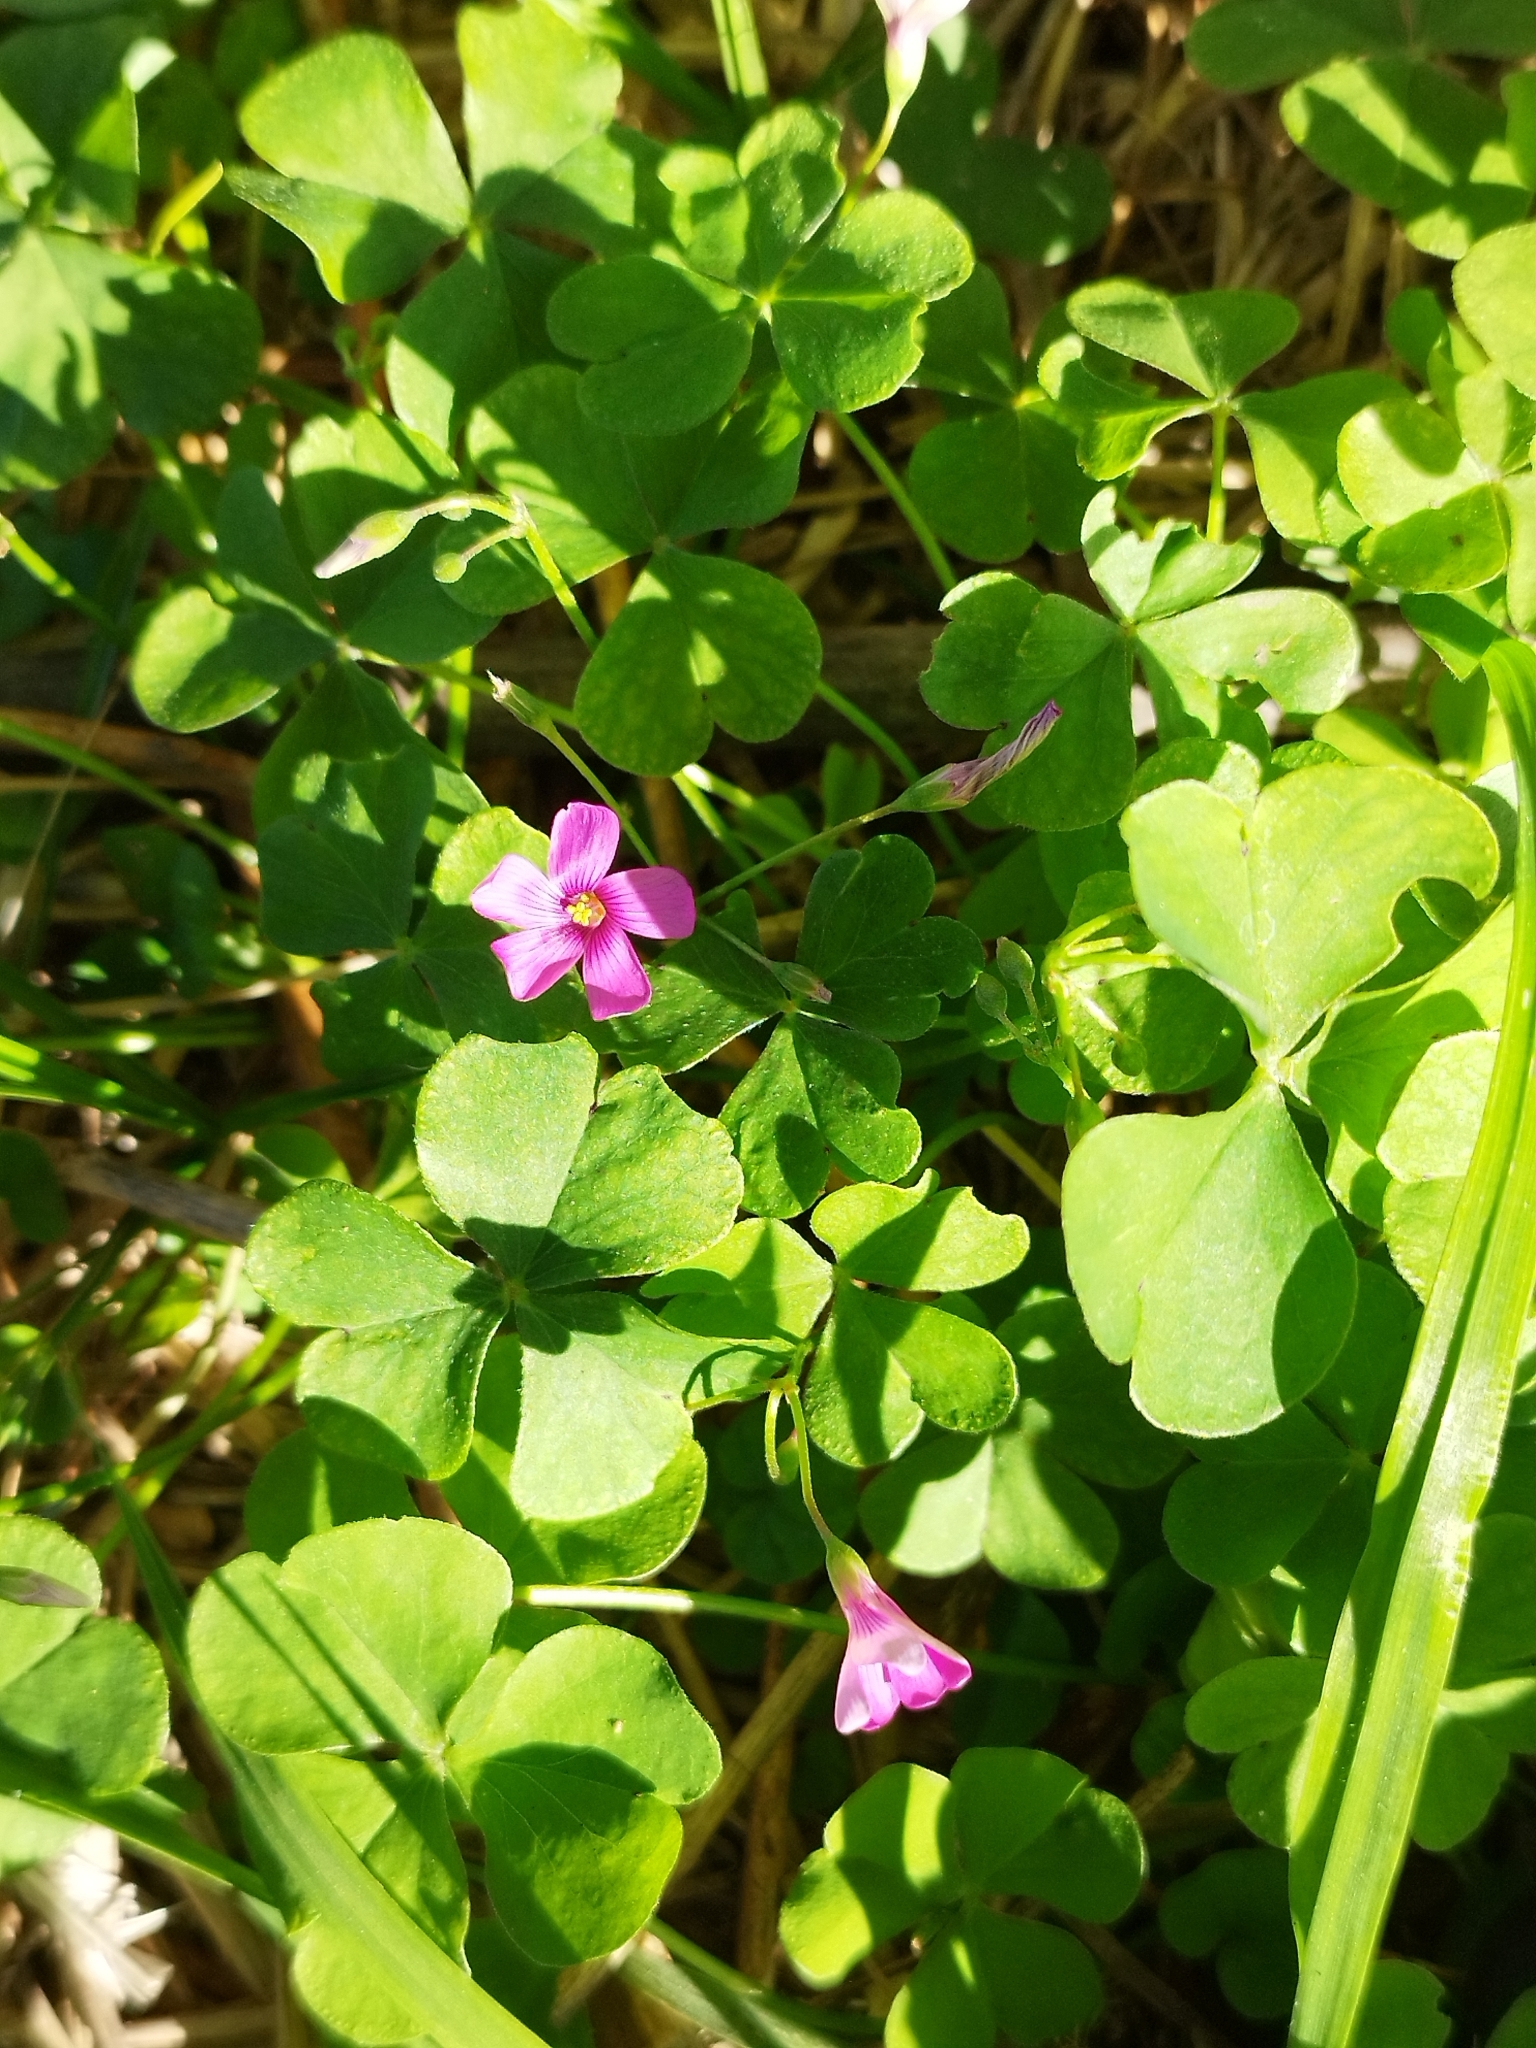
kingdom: Plantae
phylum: Tracheophyta
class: Magnoliopsida
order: Oxalidales
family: Oxalidaceae
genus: Oxalis
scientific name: Oxalis articulata
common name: Pink-sorrel
